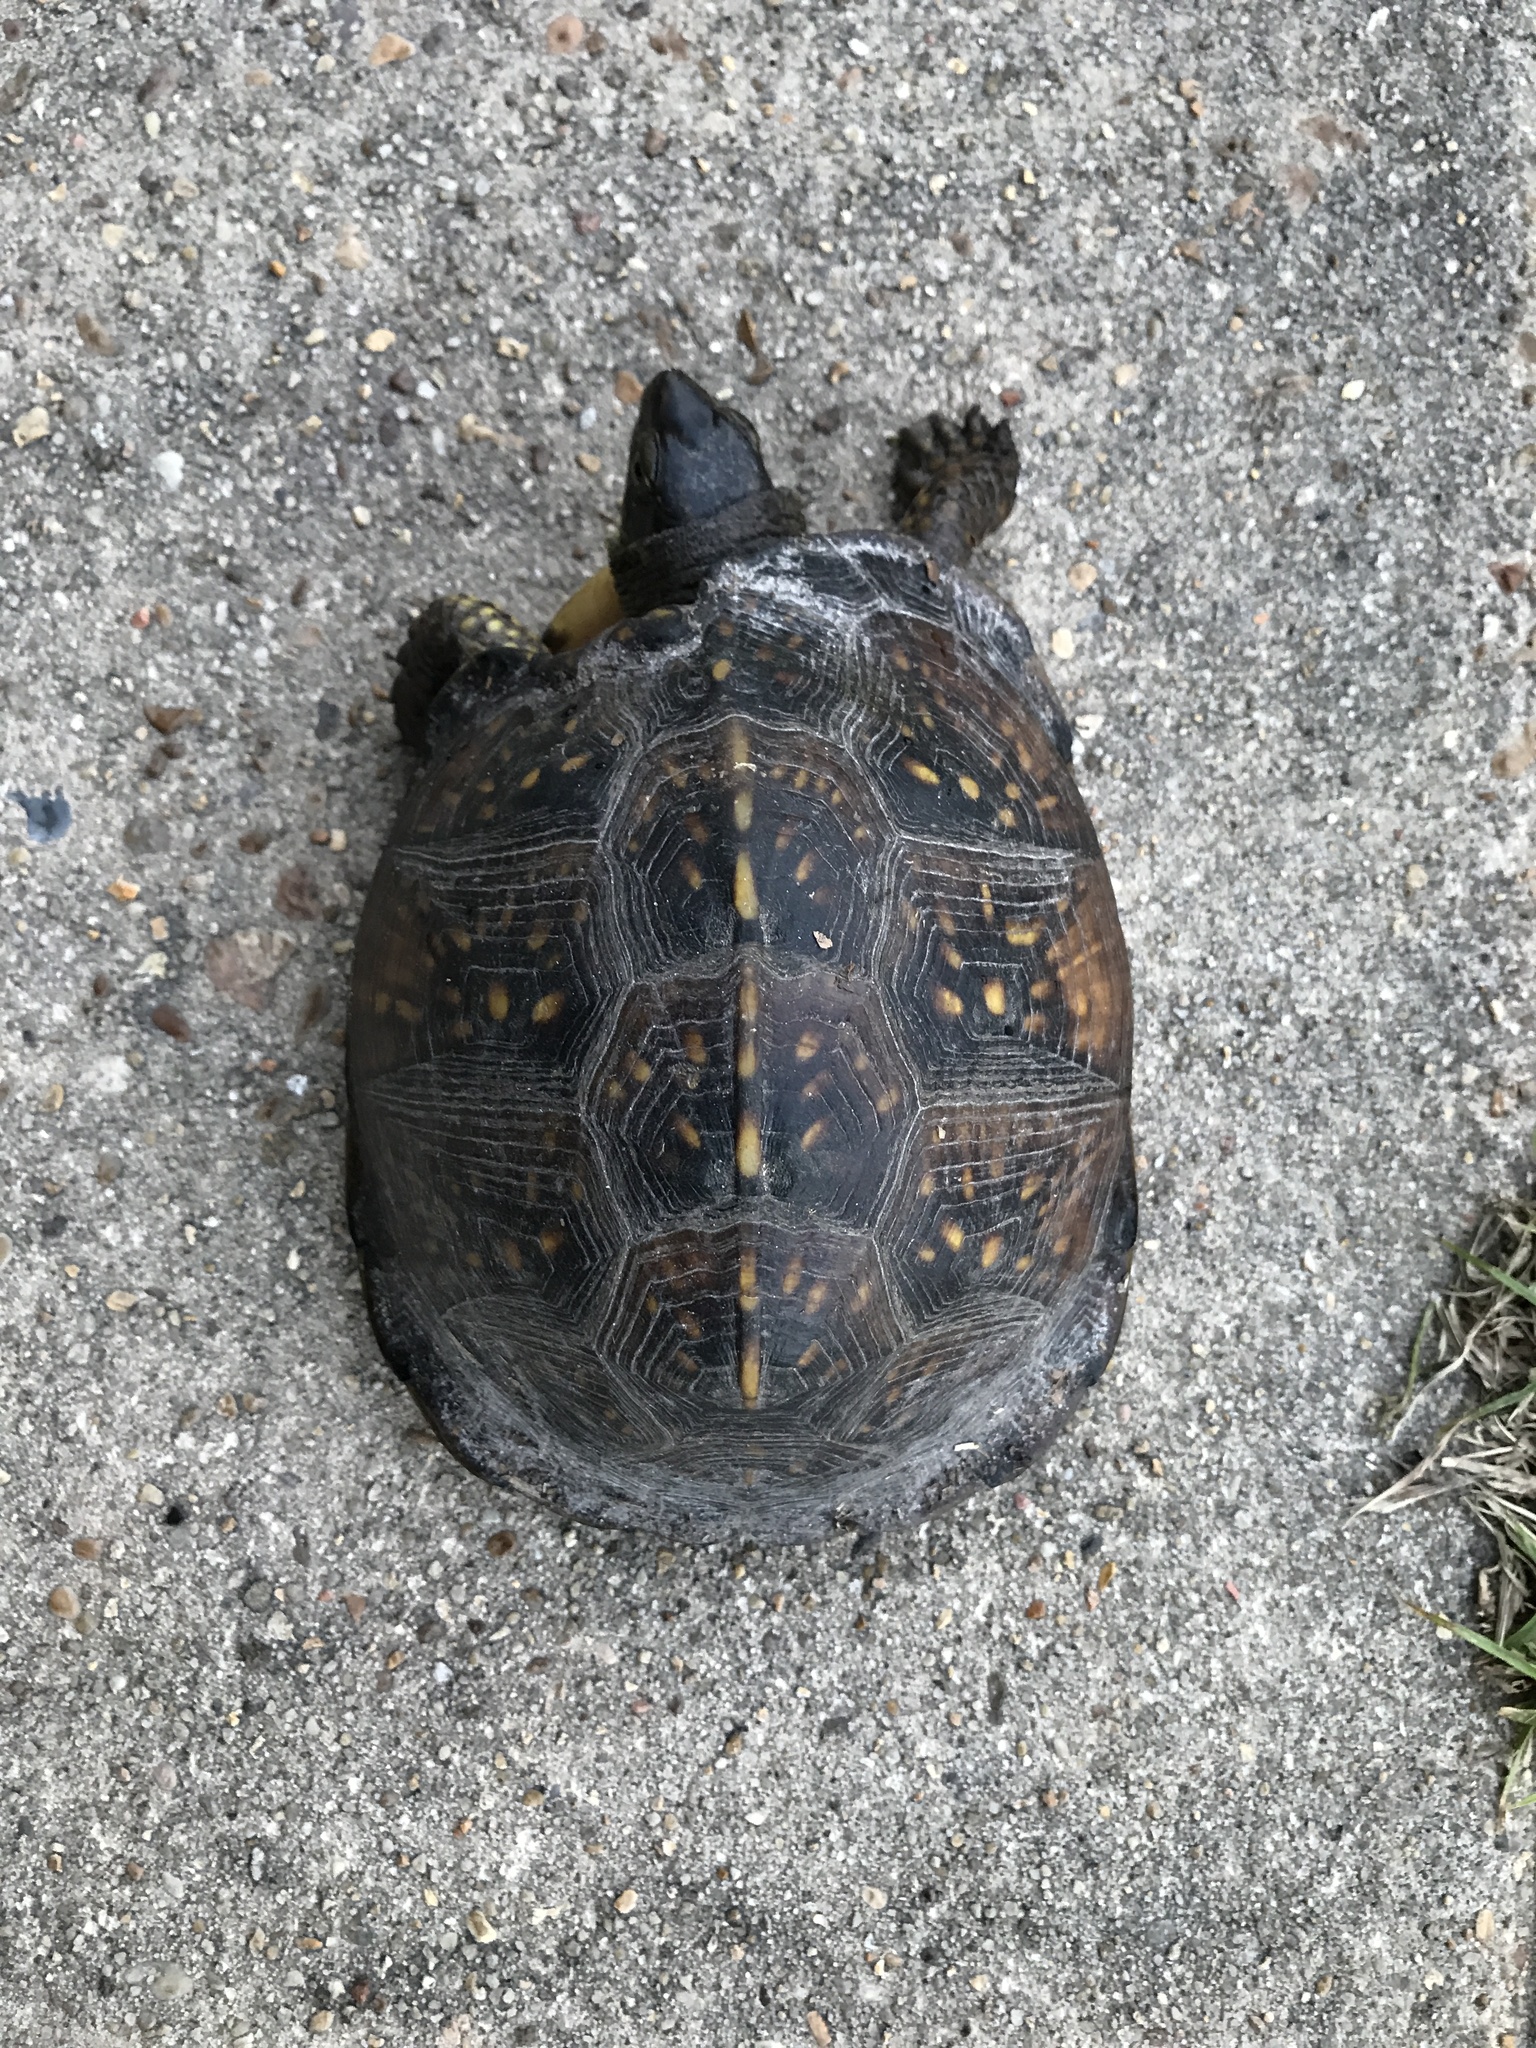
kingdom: Animalia
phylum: Chordata
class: Testudines
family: Emydidae
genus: Terrapene
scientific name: Terrapene carolina
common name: Common box turtle
